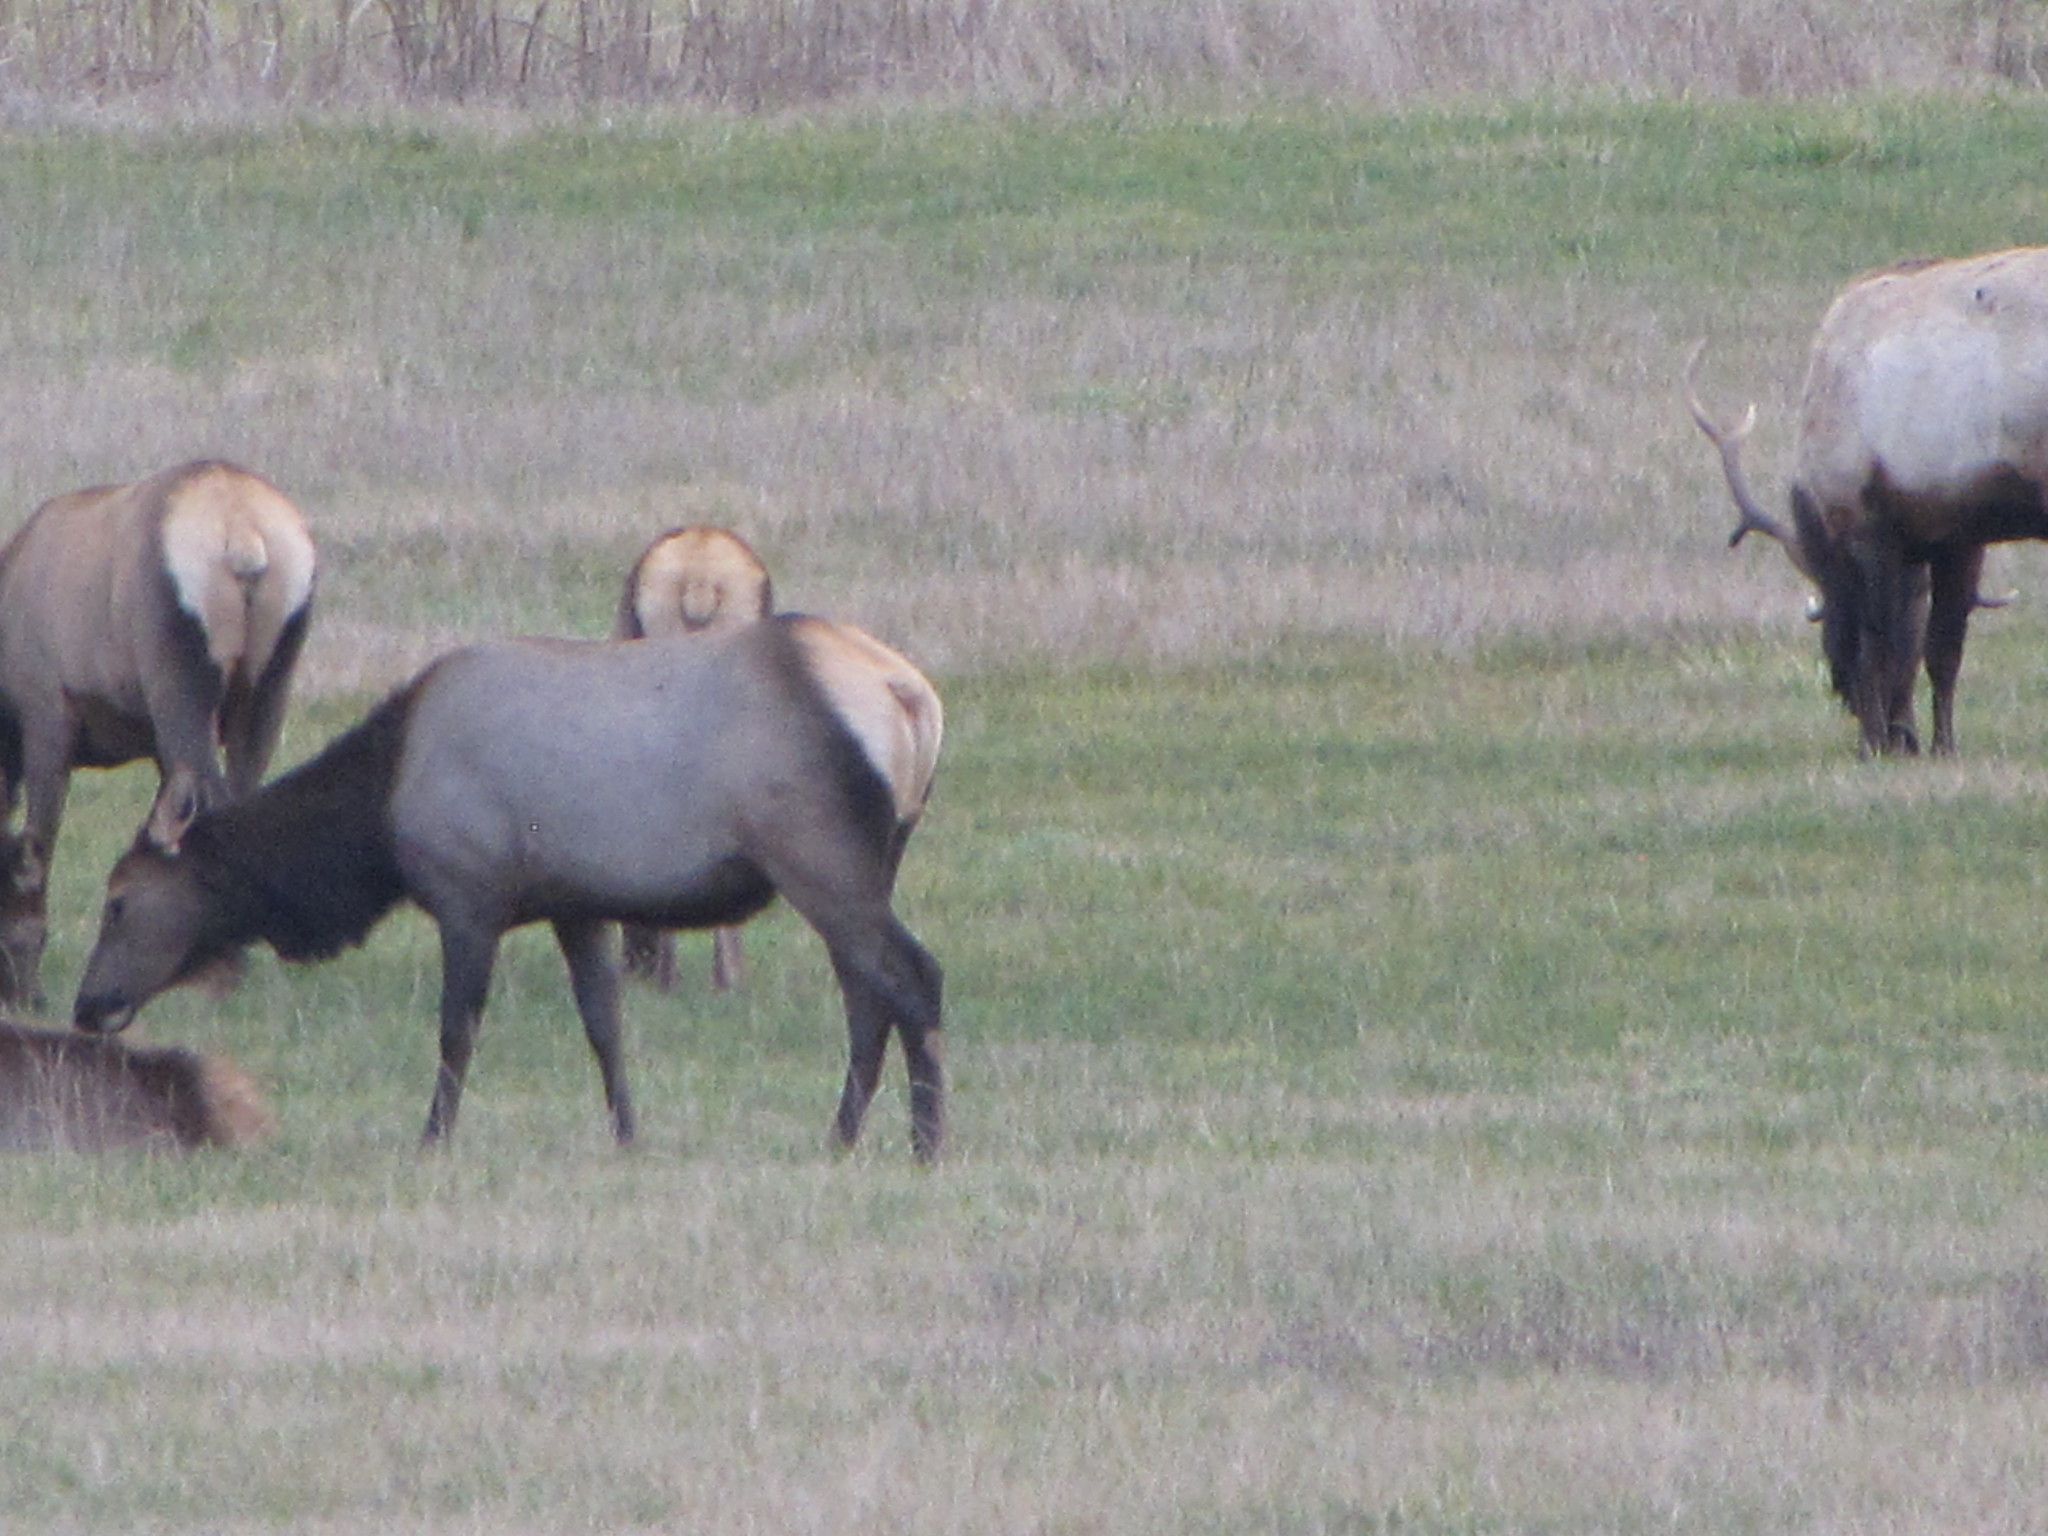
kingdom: Animalia
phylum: Chordata
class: Mammalia
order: Artiodactyla
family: Cervidae
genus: Cervus
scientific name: Cervus elaphus
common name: Red deer
